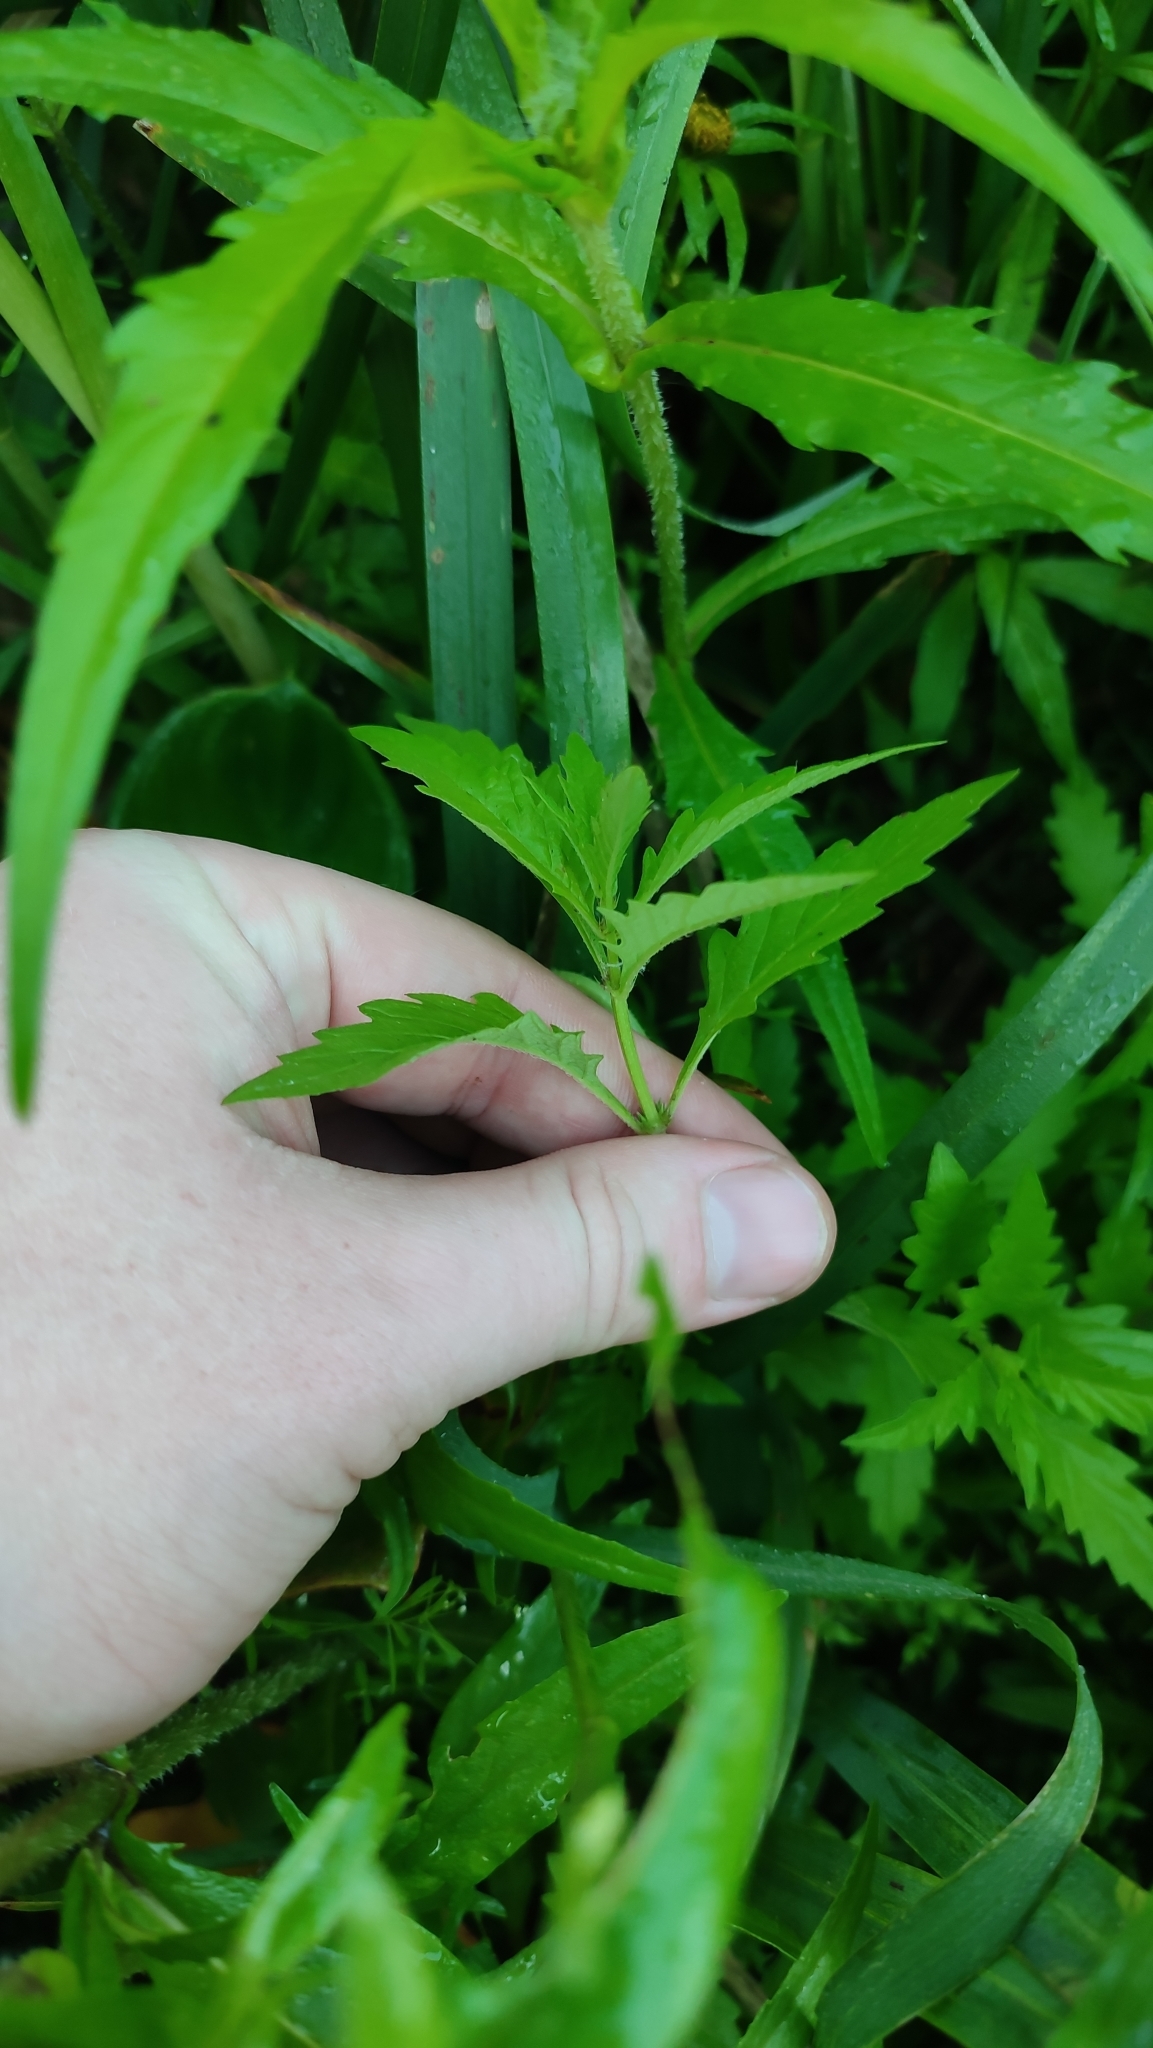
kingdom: Plantae
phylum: Tracheophyta
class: Magnoliopsida
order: Lamiales
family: Lamiaceae
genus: Lycopus
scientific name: Lycopus europaeus
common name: European bugleweed
